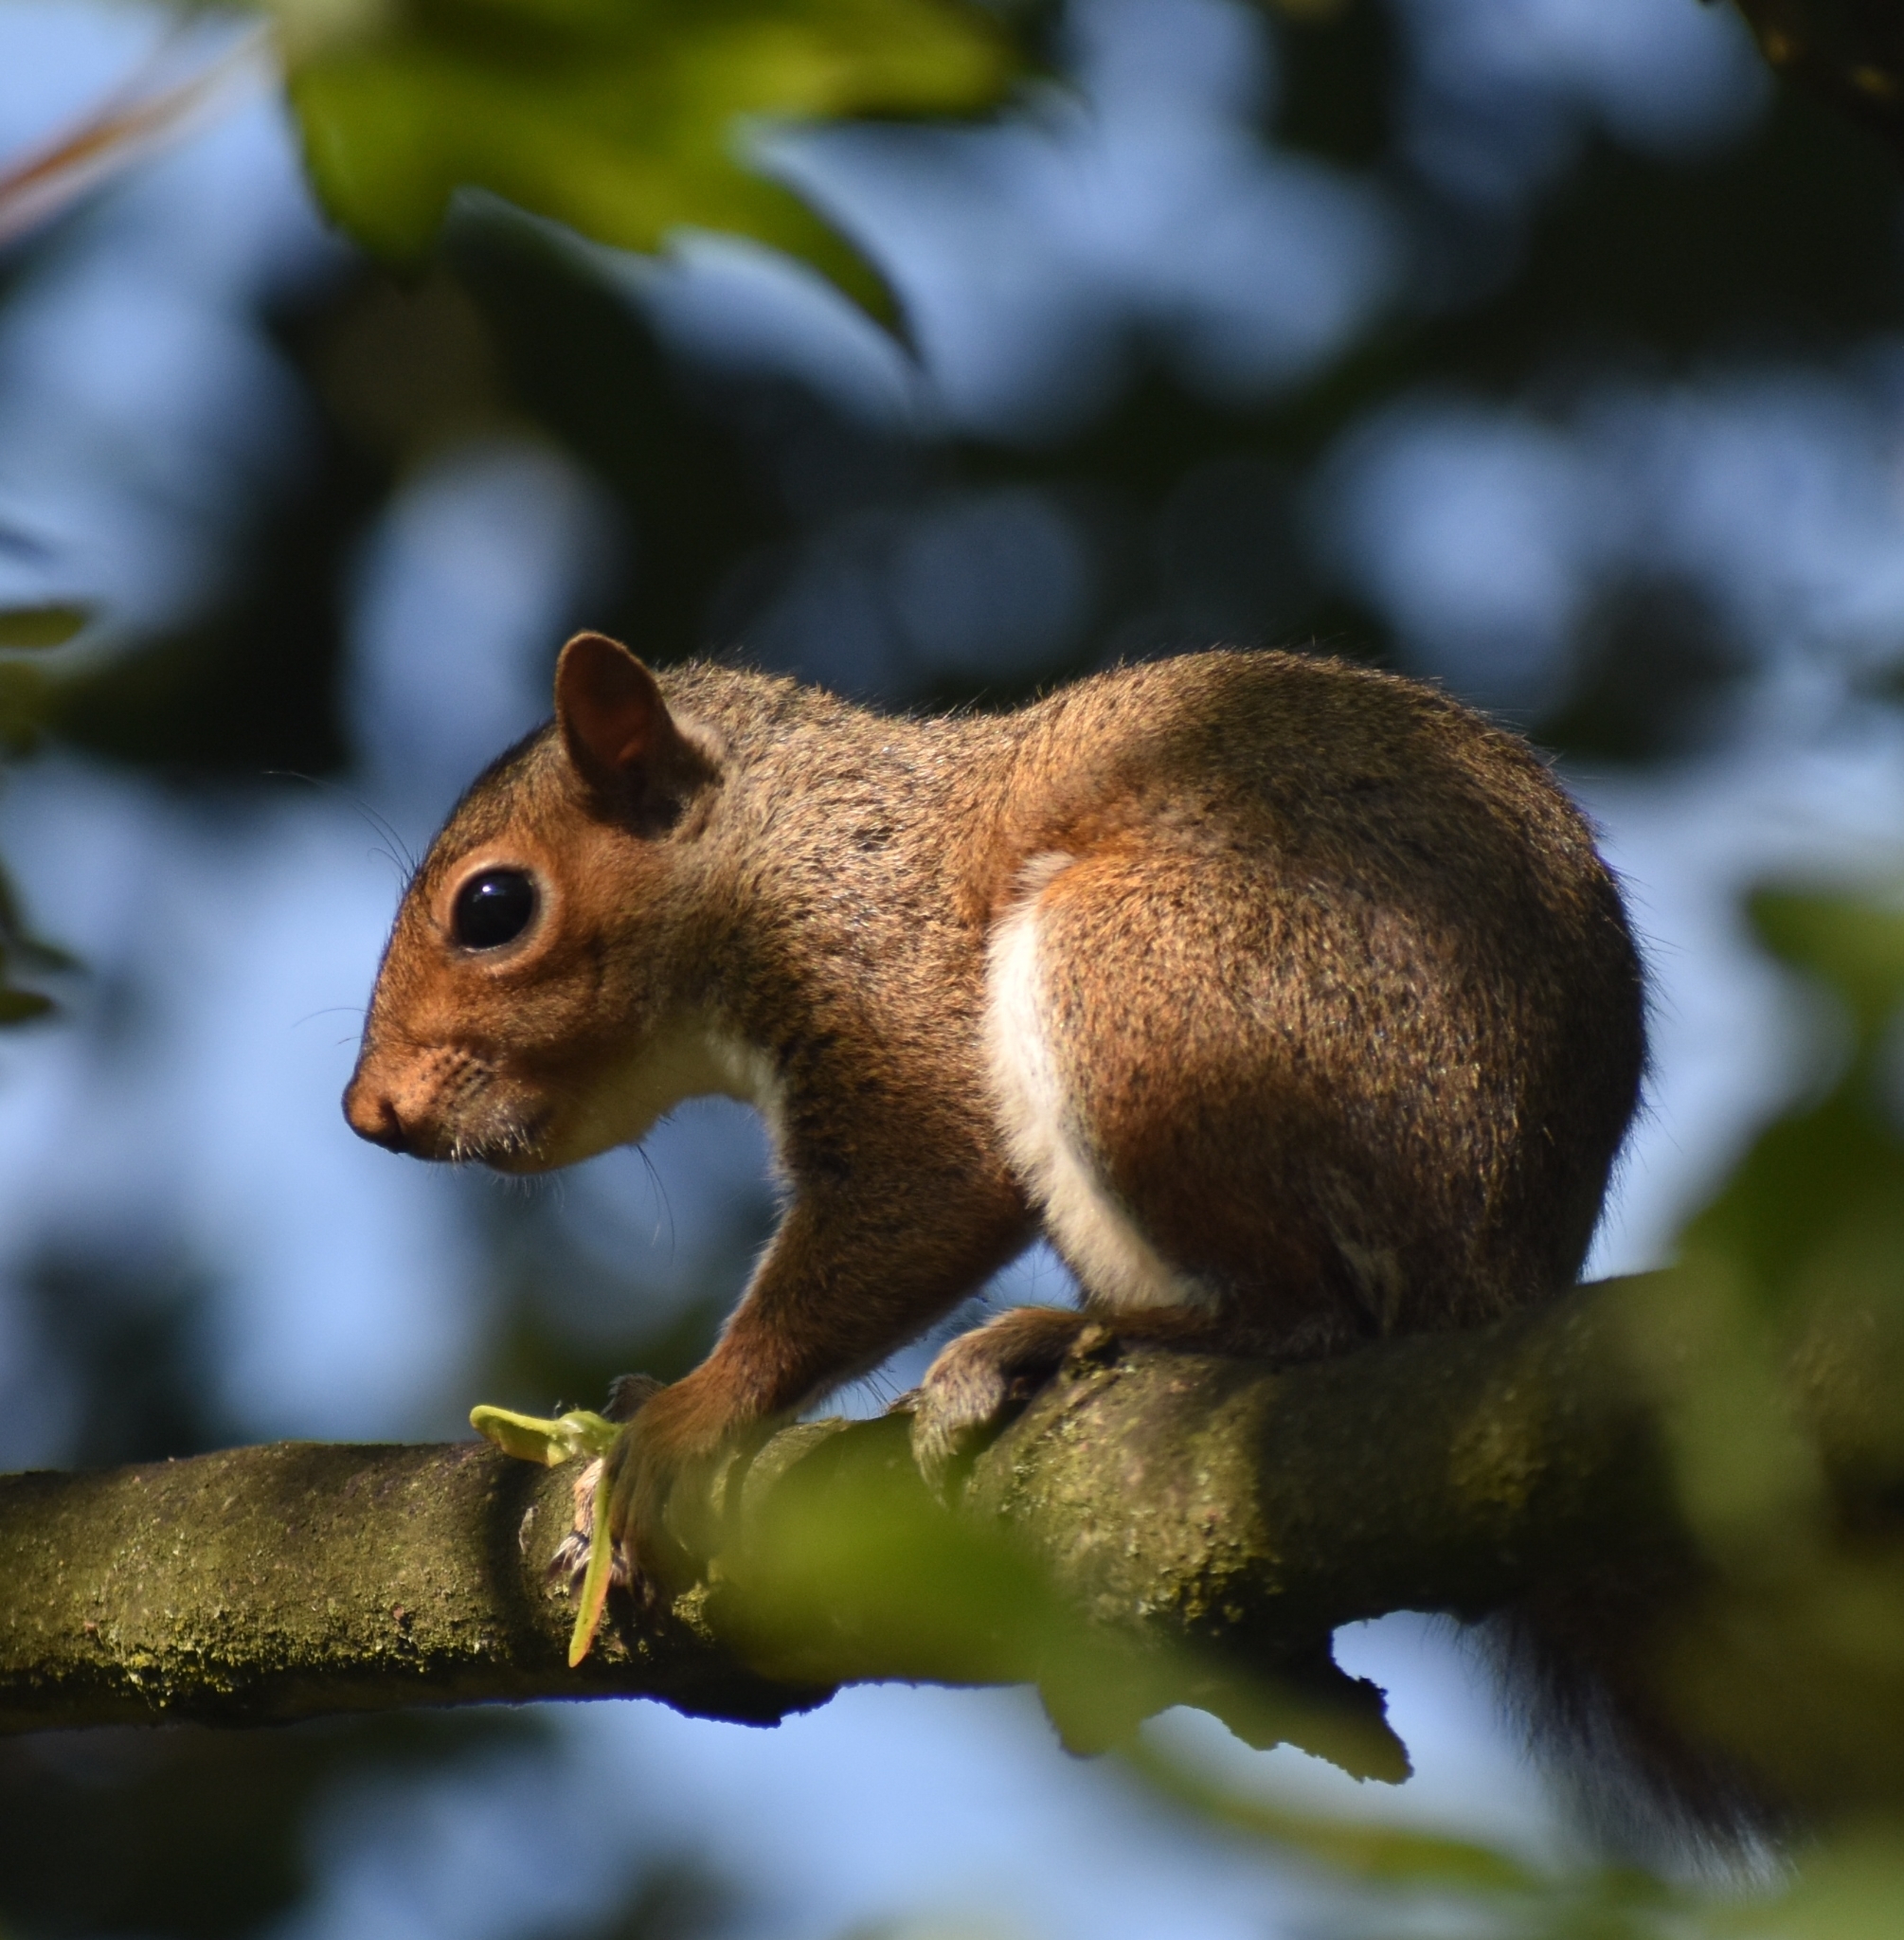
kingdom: Animalia
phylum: Chordata
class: Mammalia
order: Rodentia
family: Sciuridae
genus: Sciurus
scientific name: Sciurus carolinensis
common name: Eastern gray squirrel
